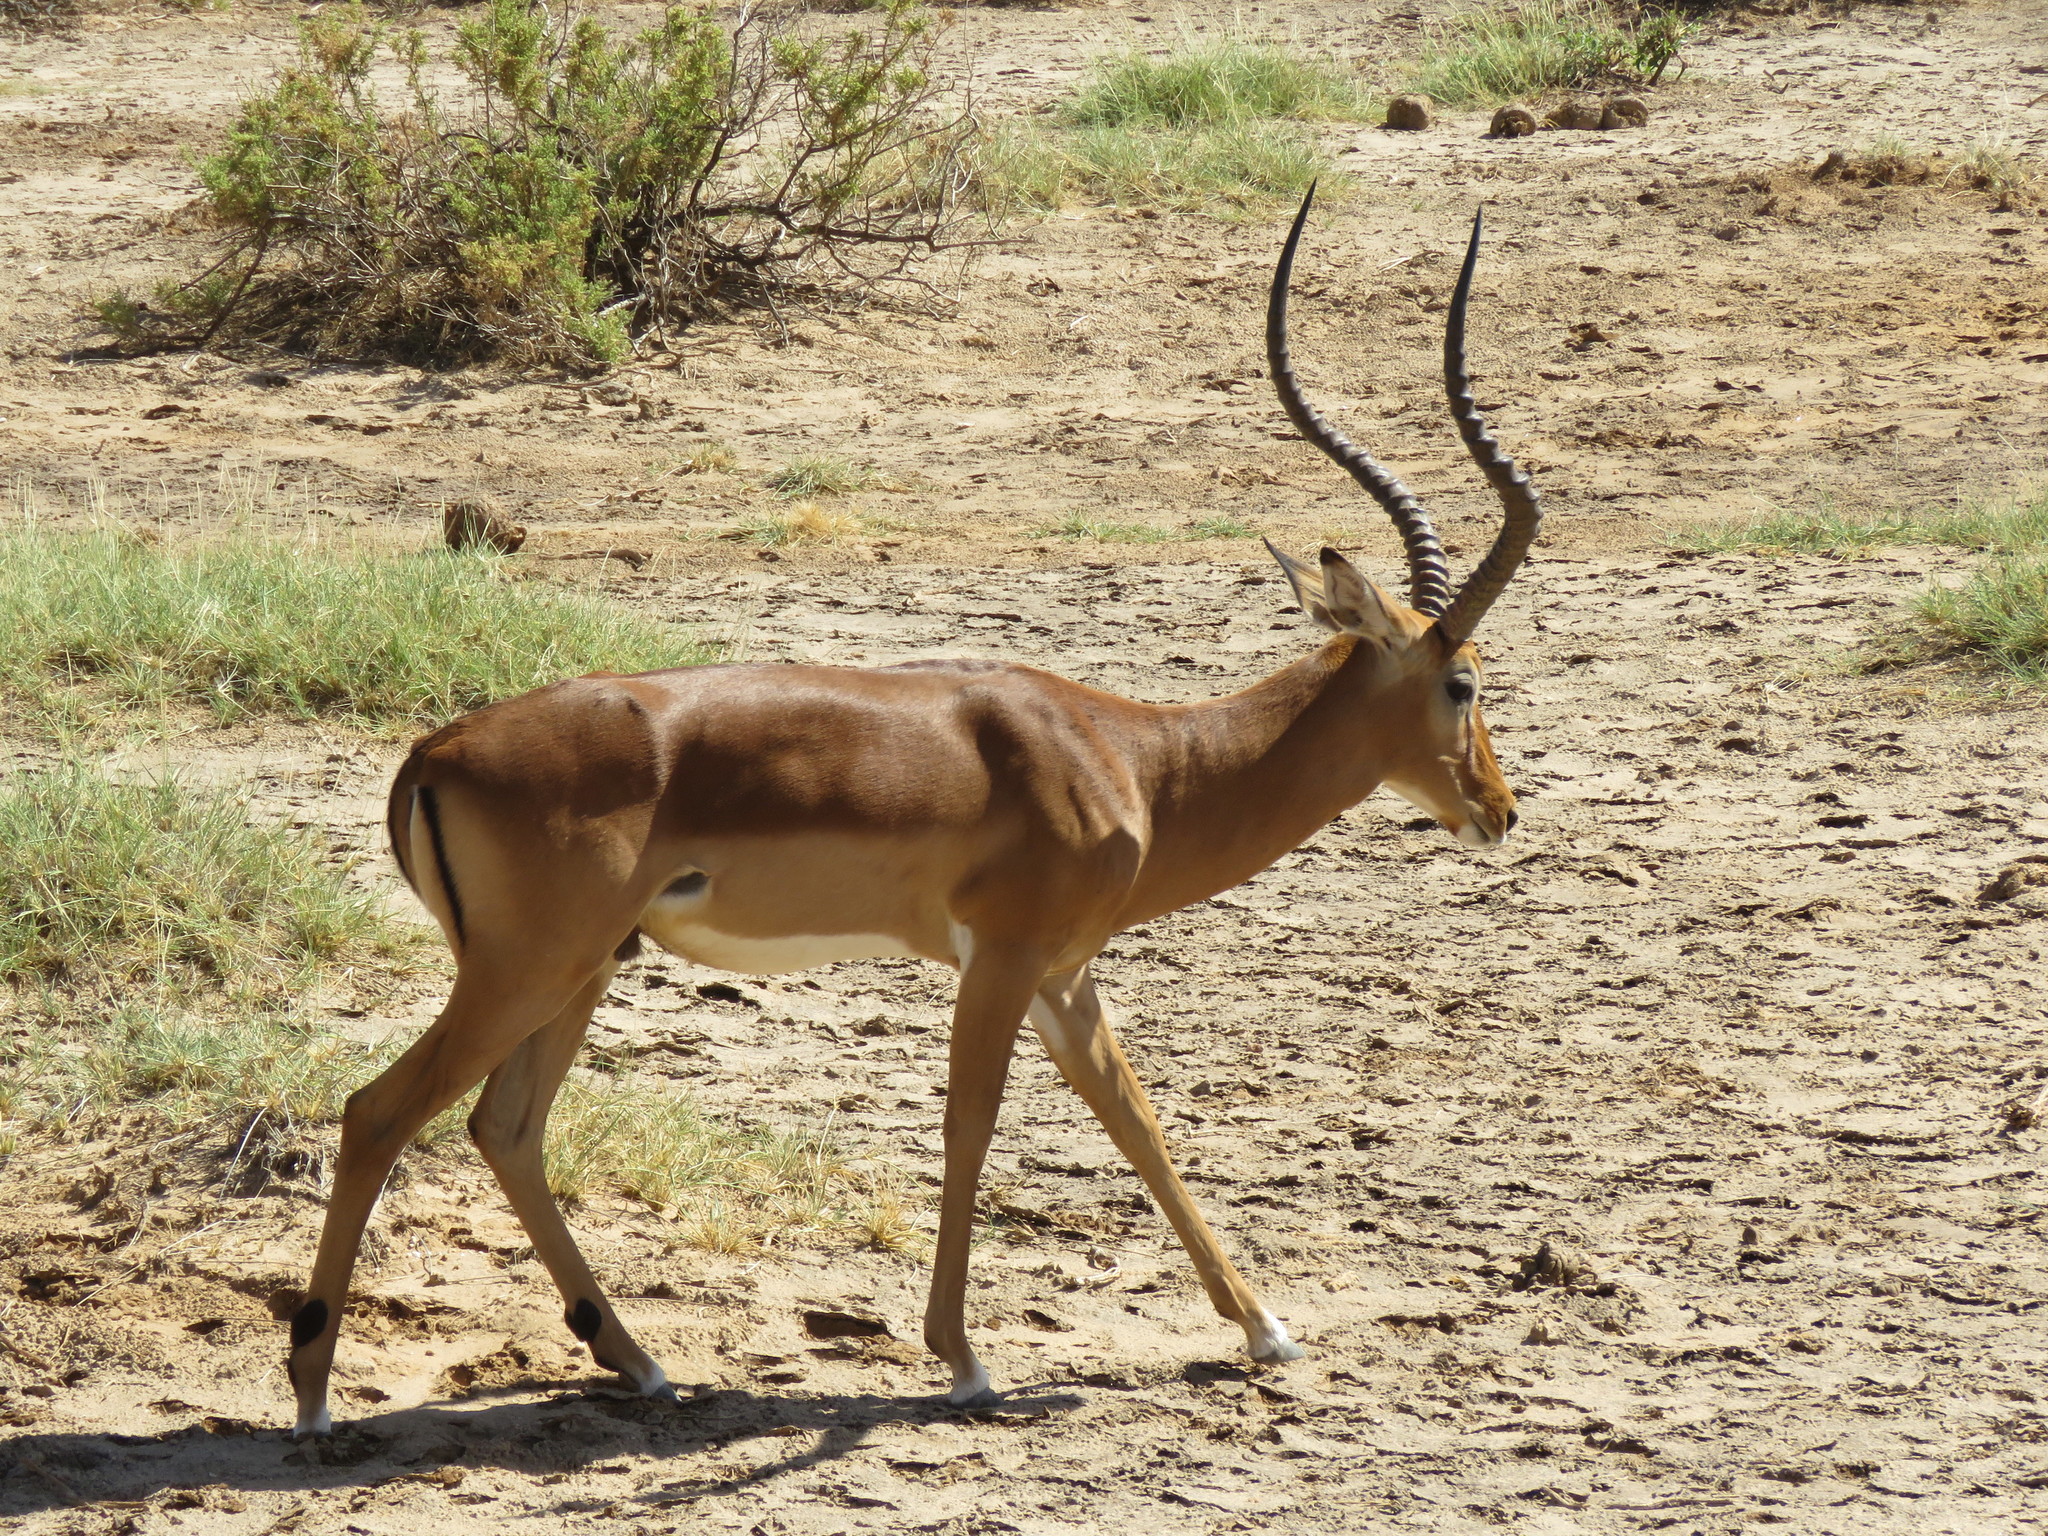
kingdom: Animalia
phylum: Chordata
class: Mammalia
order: Artiodactyla
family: Bovidae
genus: Aepyceros
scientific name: Aepyceros melampus
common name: Impala
